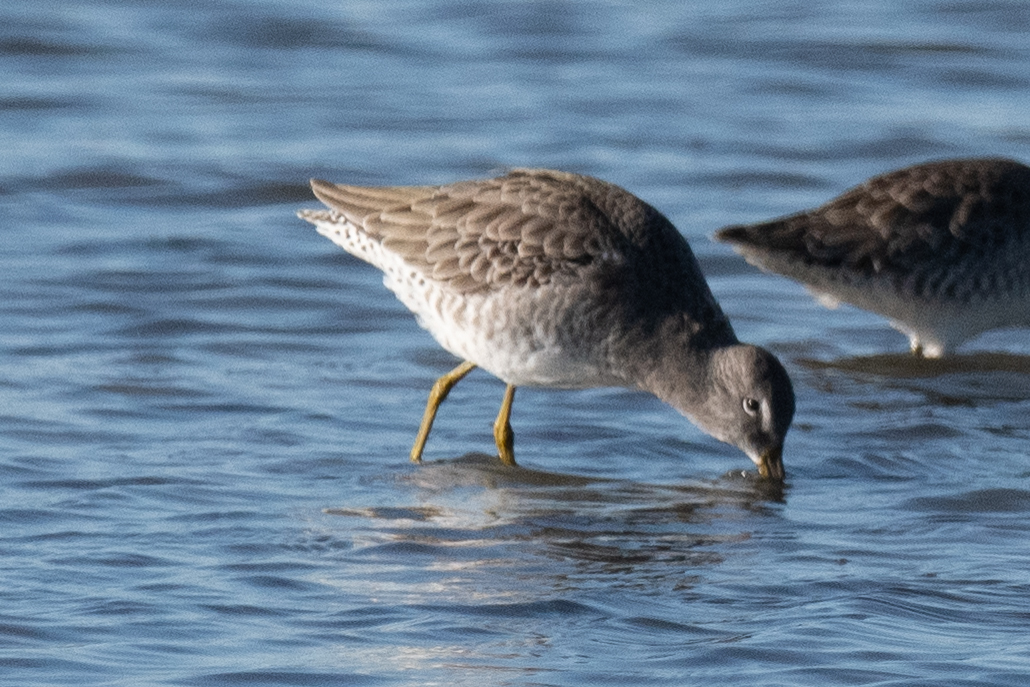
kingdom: Animalia
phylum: Chordata
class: Aves
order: Charadriiformes
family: Scolopacidae
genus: Limnodromus
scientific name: Limnodromus scolopaceus
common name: Long-billed dowitcher
